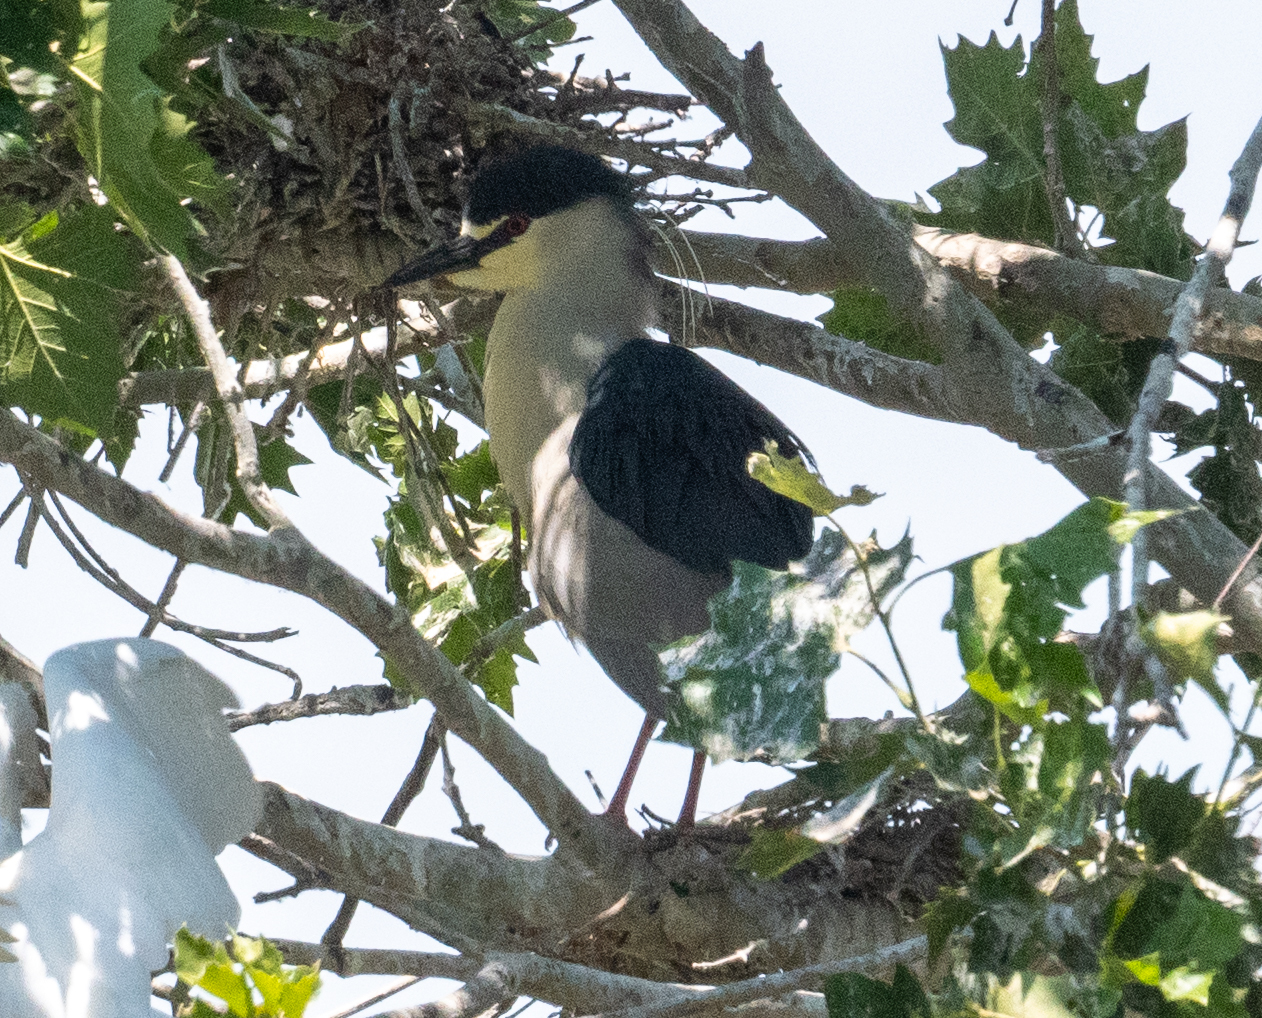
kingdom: Animalia
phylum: Chordata
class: Aves
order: Pelecaniformes
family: Ardeidae
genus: Nycticorax
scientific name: Nycticorax nycticorax
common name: Black-crowned night heron
